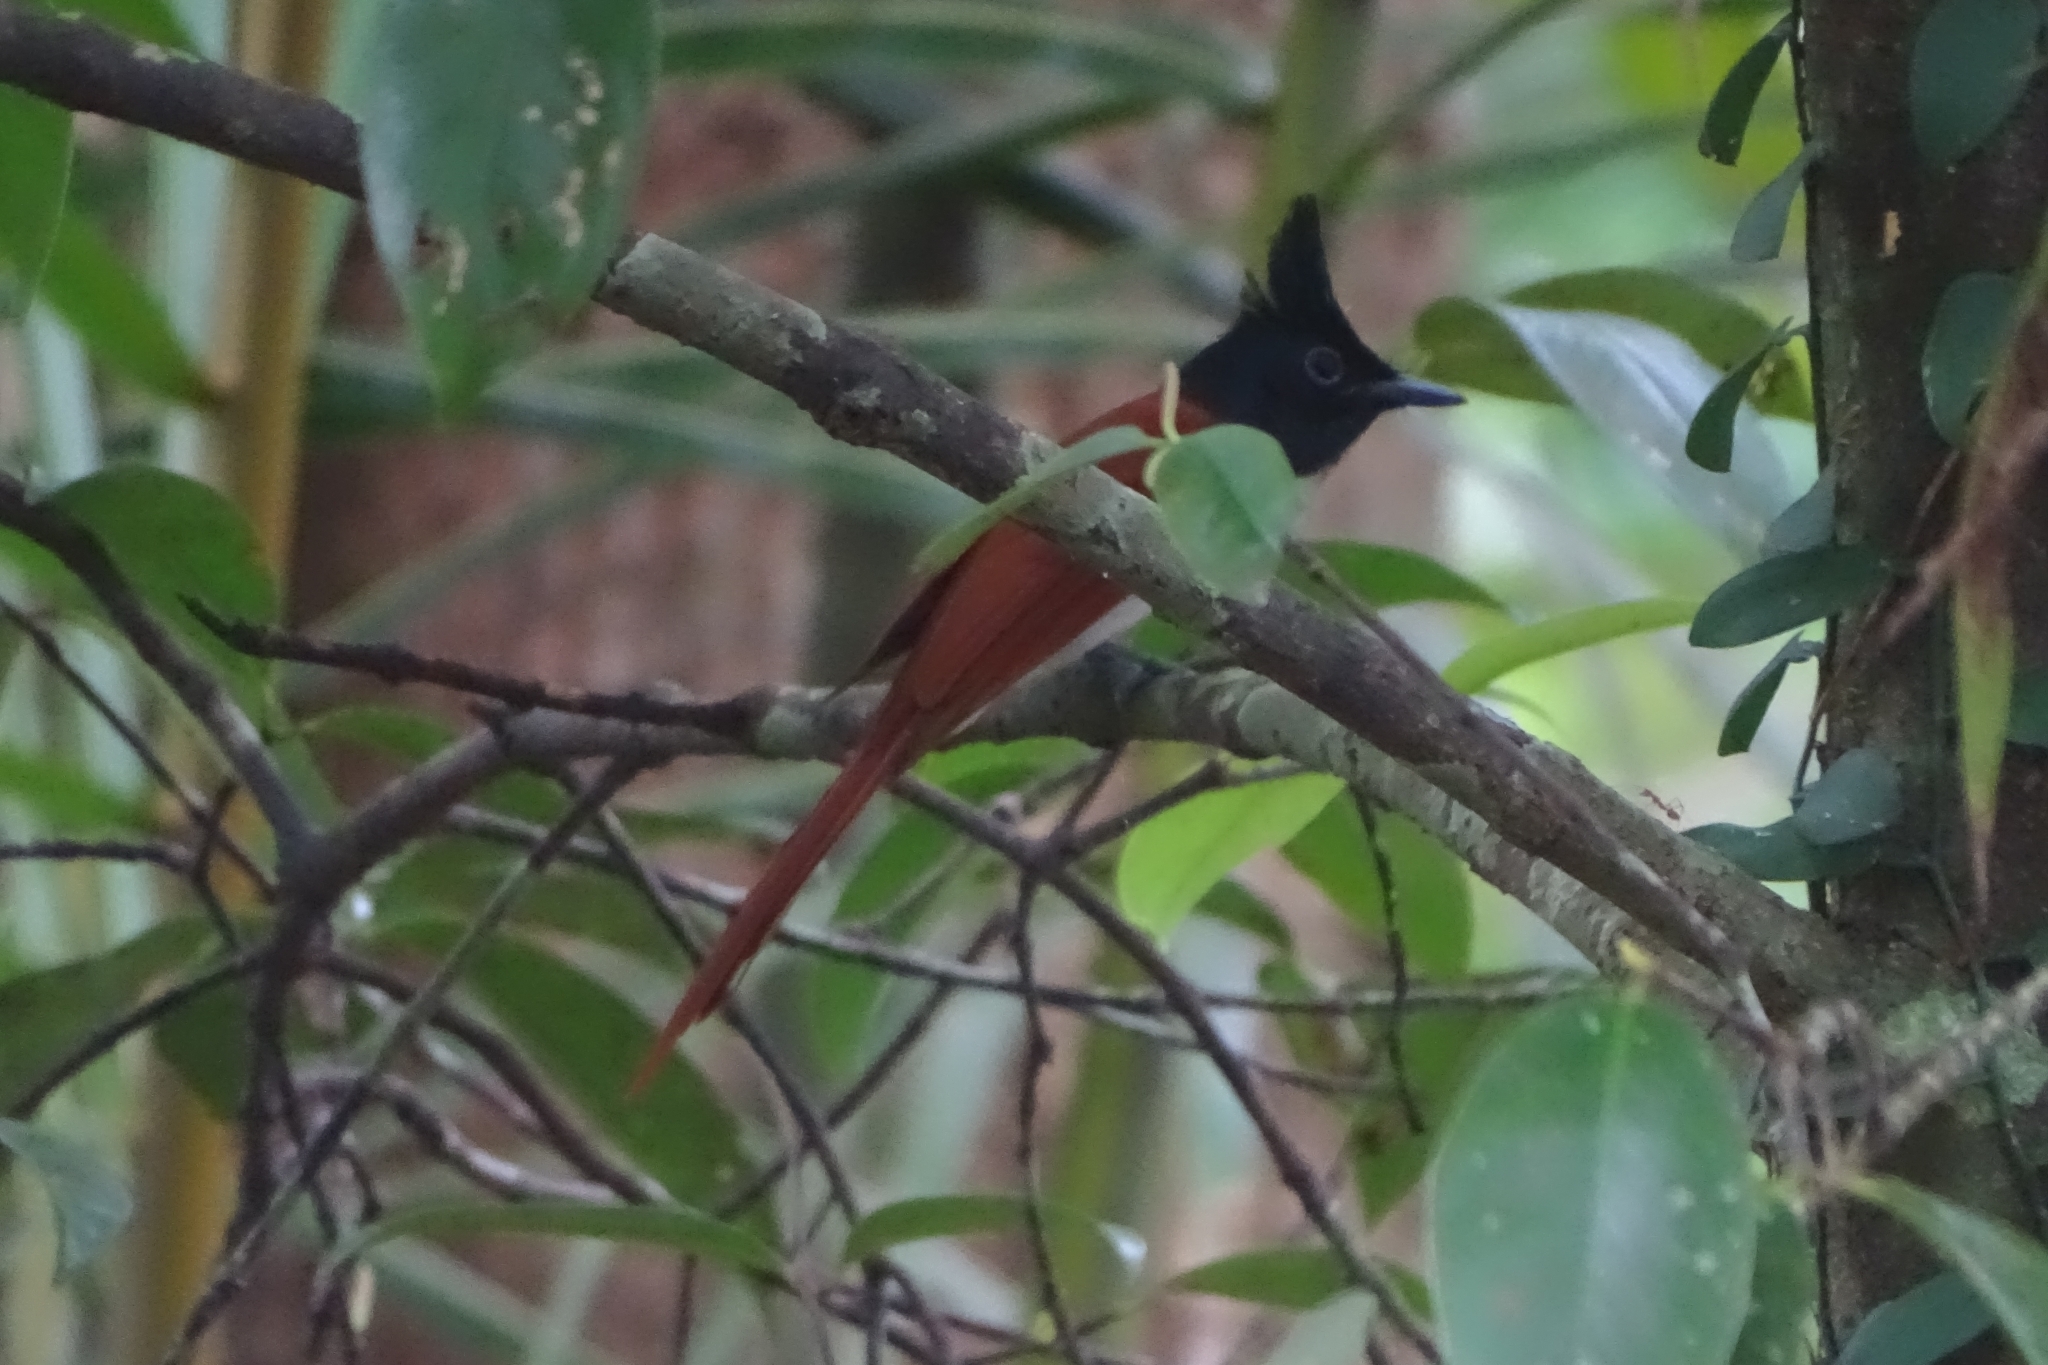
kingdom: Animalia
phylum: Chordata
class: Aves
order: Passeriformes
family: Monarchidae
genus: Terpsiphone
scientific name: Terpsiphone paradisi
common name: Indian paradise flycatcher
